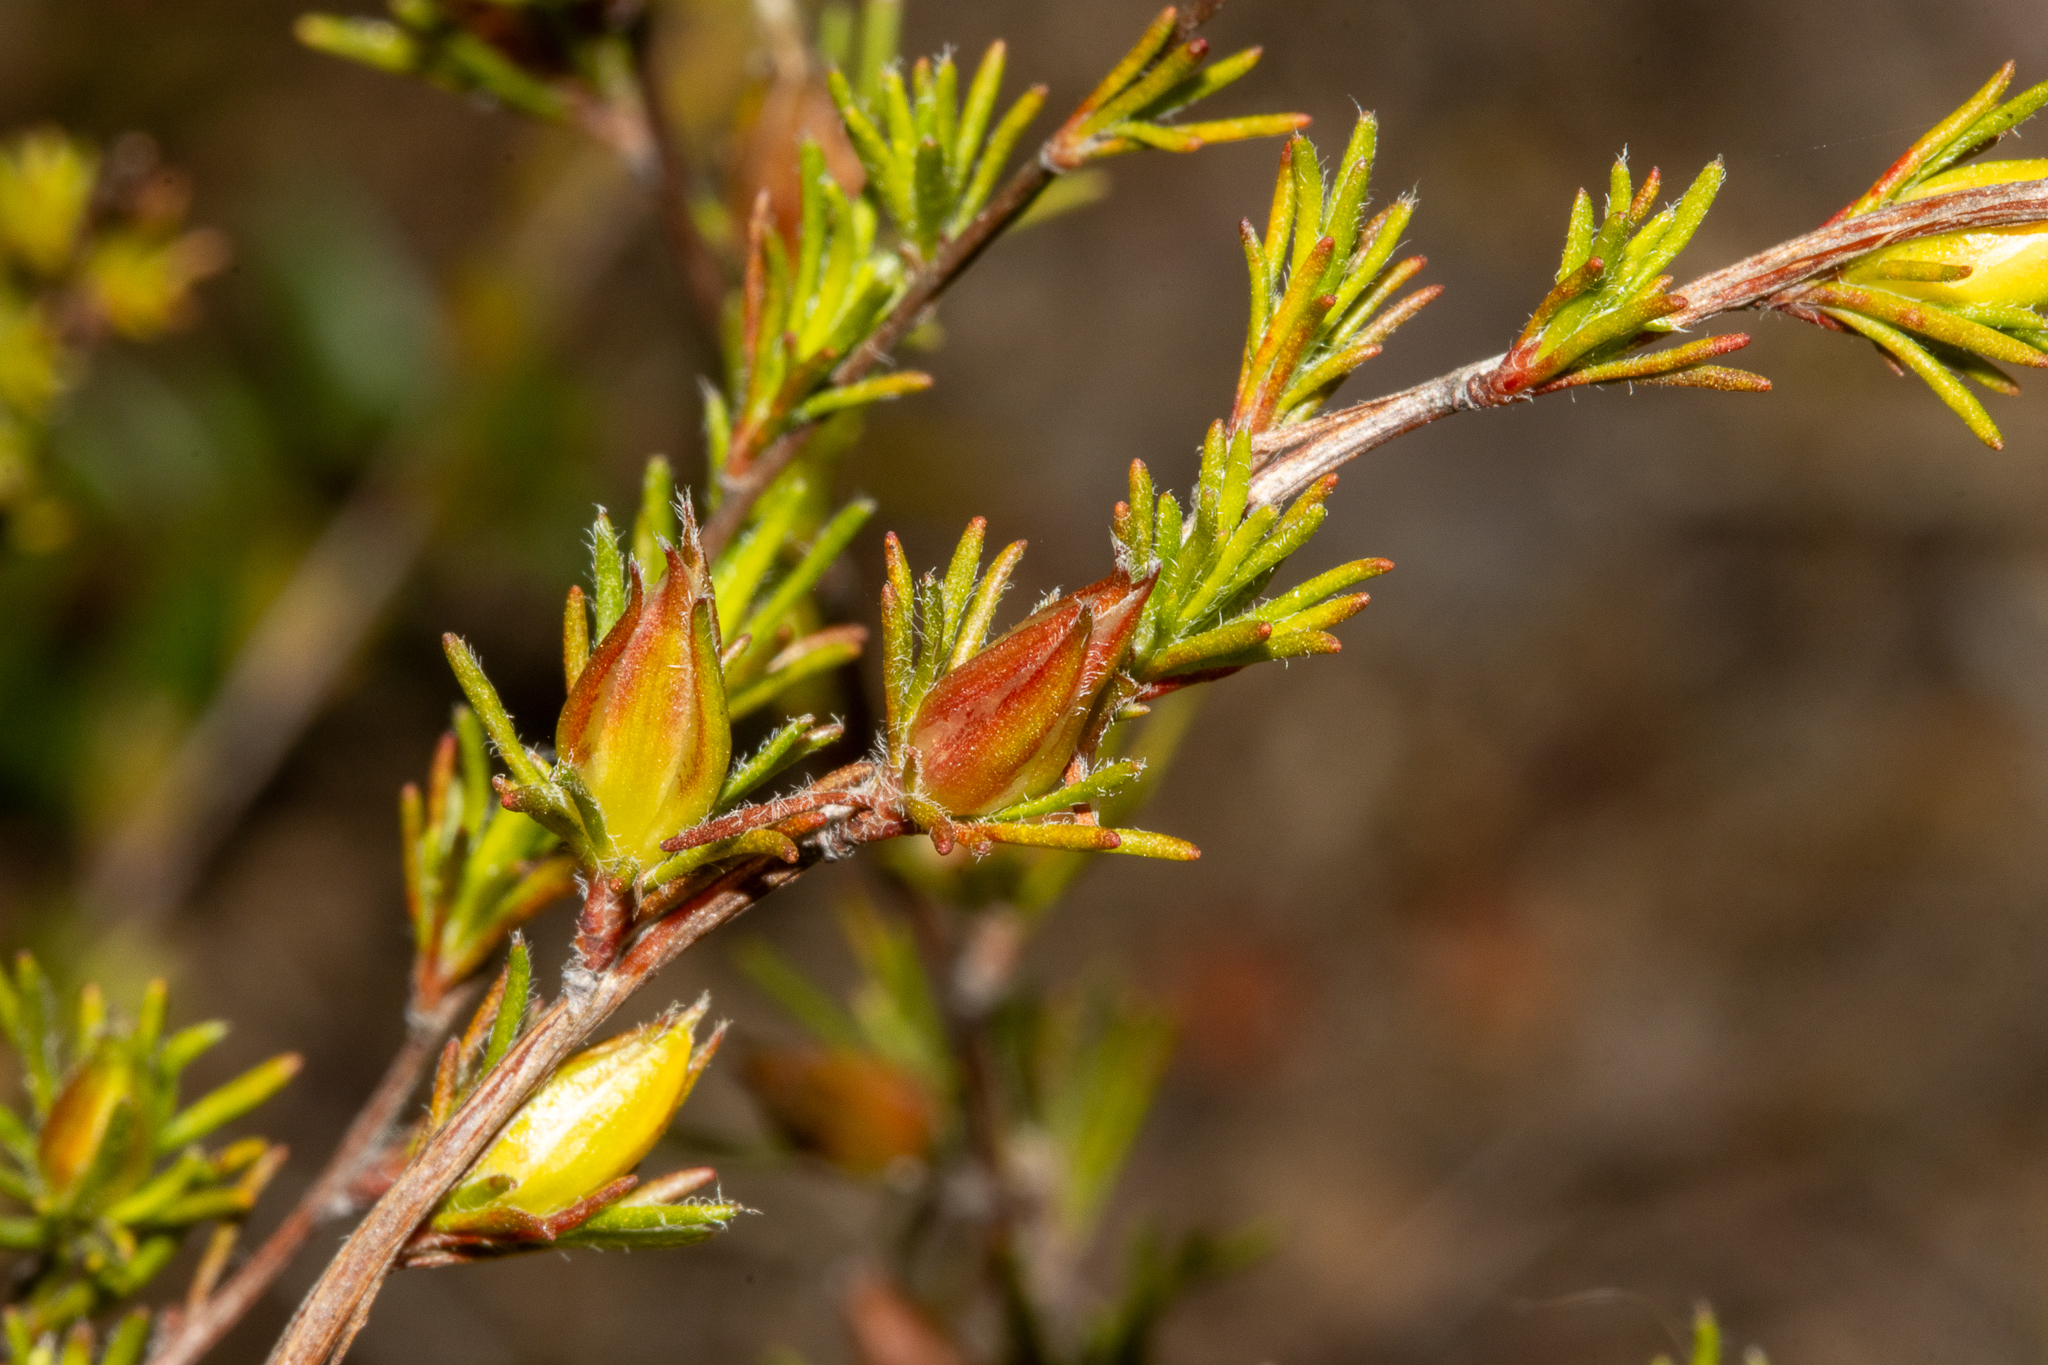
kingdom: Plantae
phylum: Tracheophyta
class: Magnoliopsida
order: Dilleniales
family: Dilleniaceae
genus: Hibbertia
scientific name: Hibbertia fasciculata
